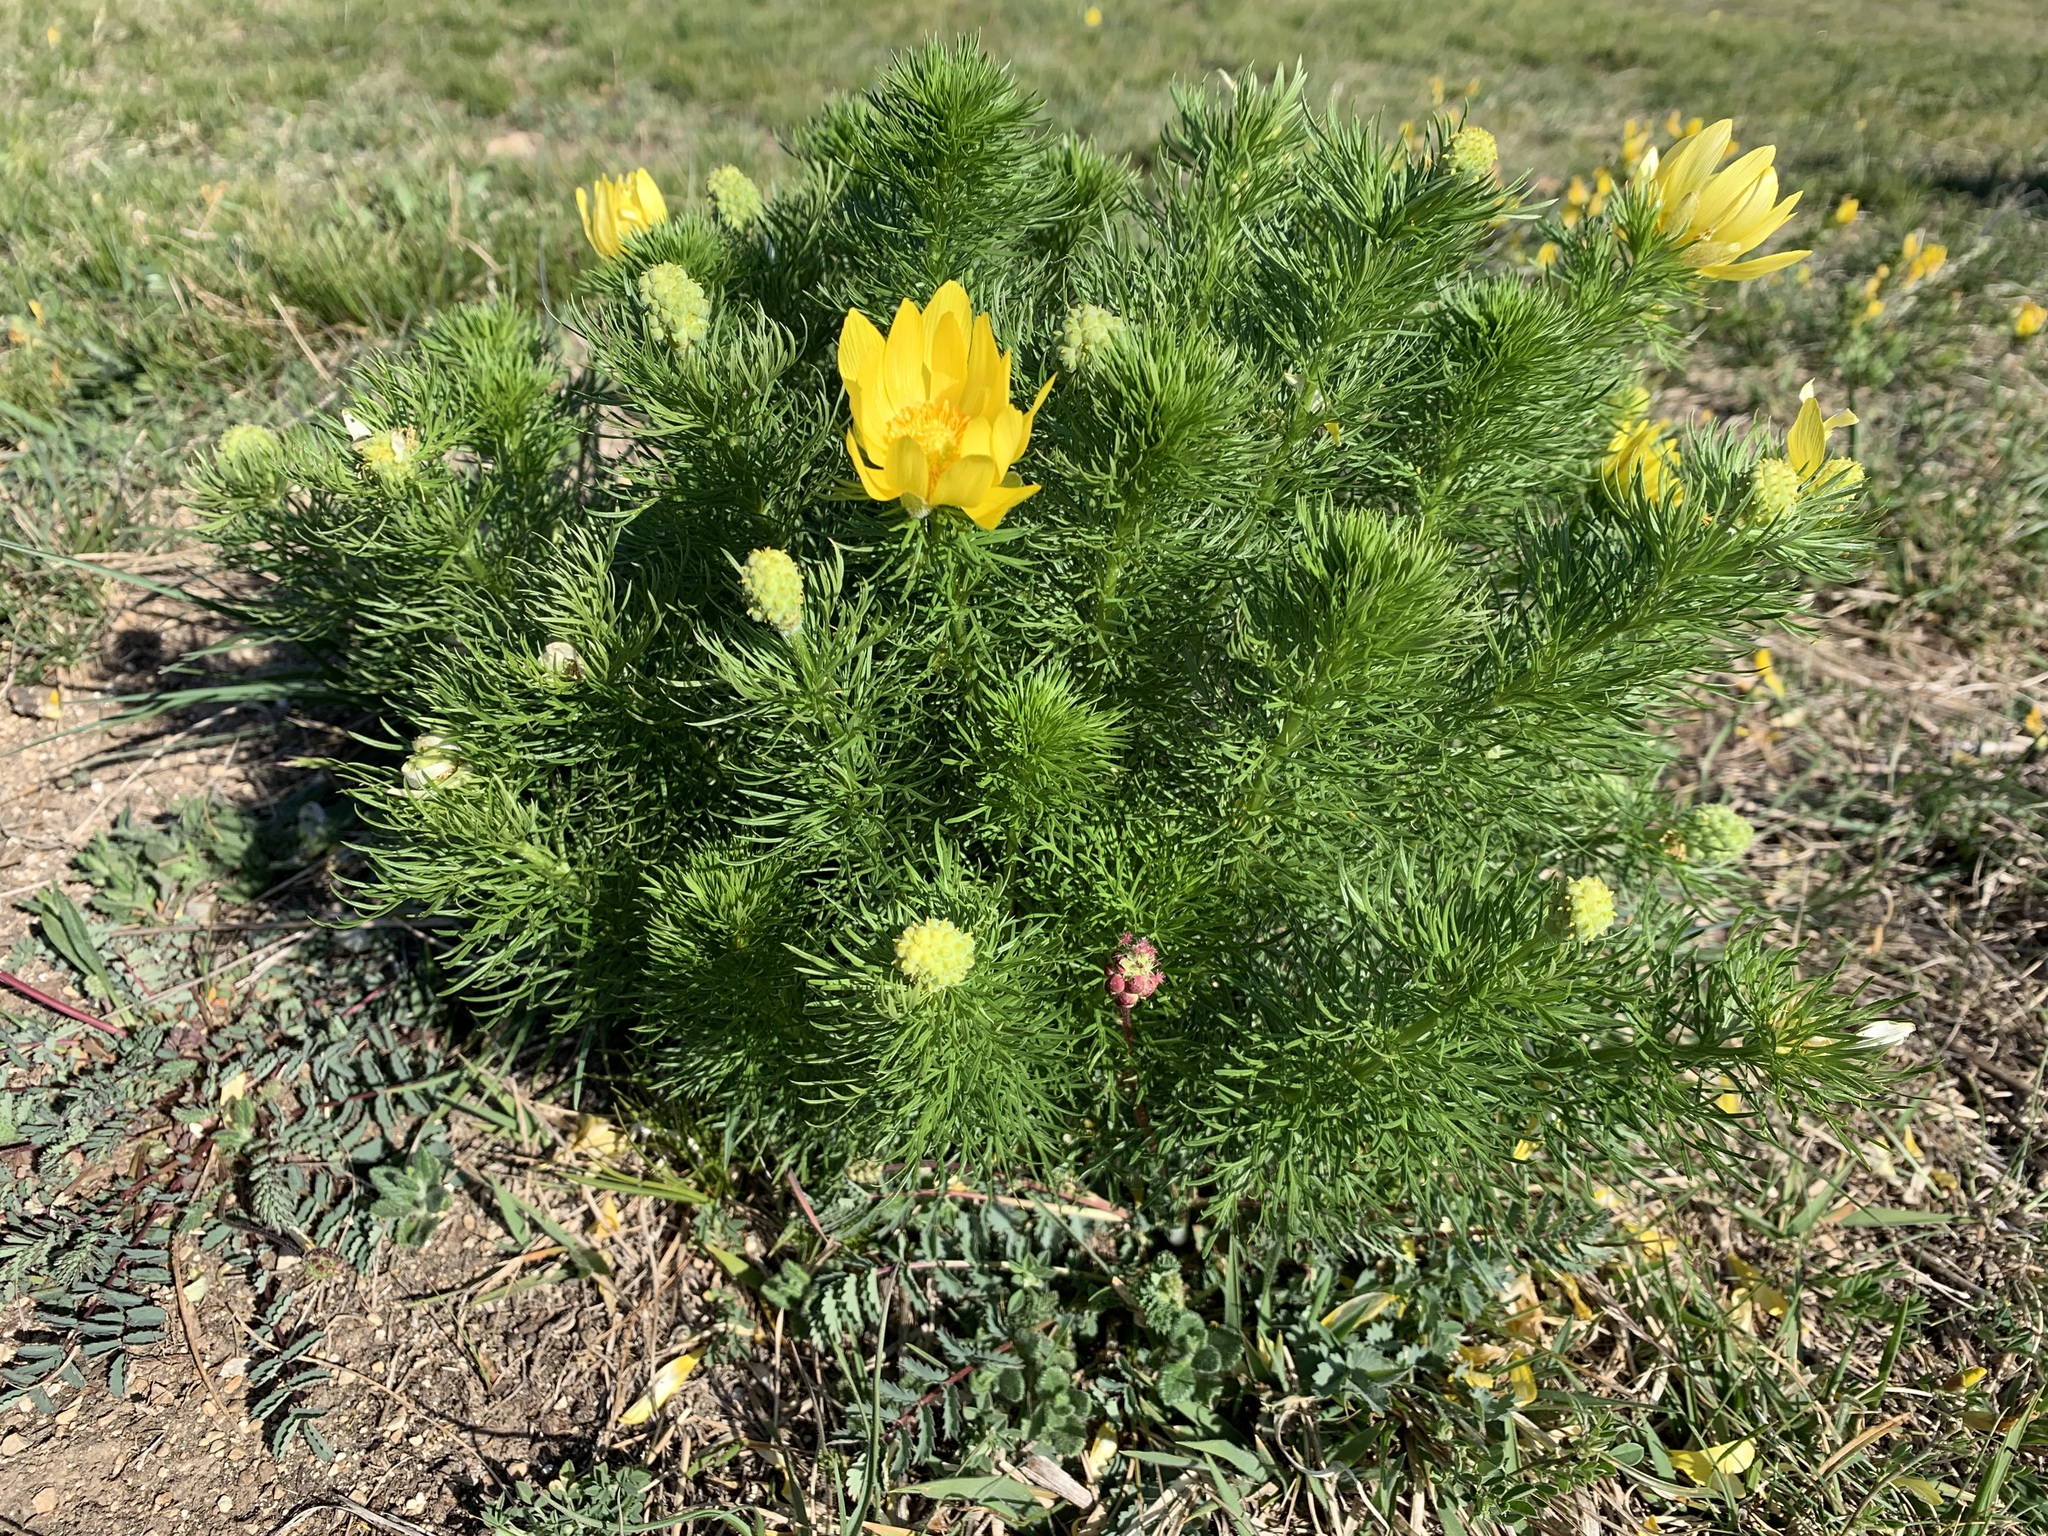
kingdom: Plantae
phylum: Tracheophyta
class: Magnoliopsida
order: Ranunculales
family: Ranunculaceae
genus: Adonis
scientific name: Adonis vernalis
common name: Yellow pheasants-eye
